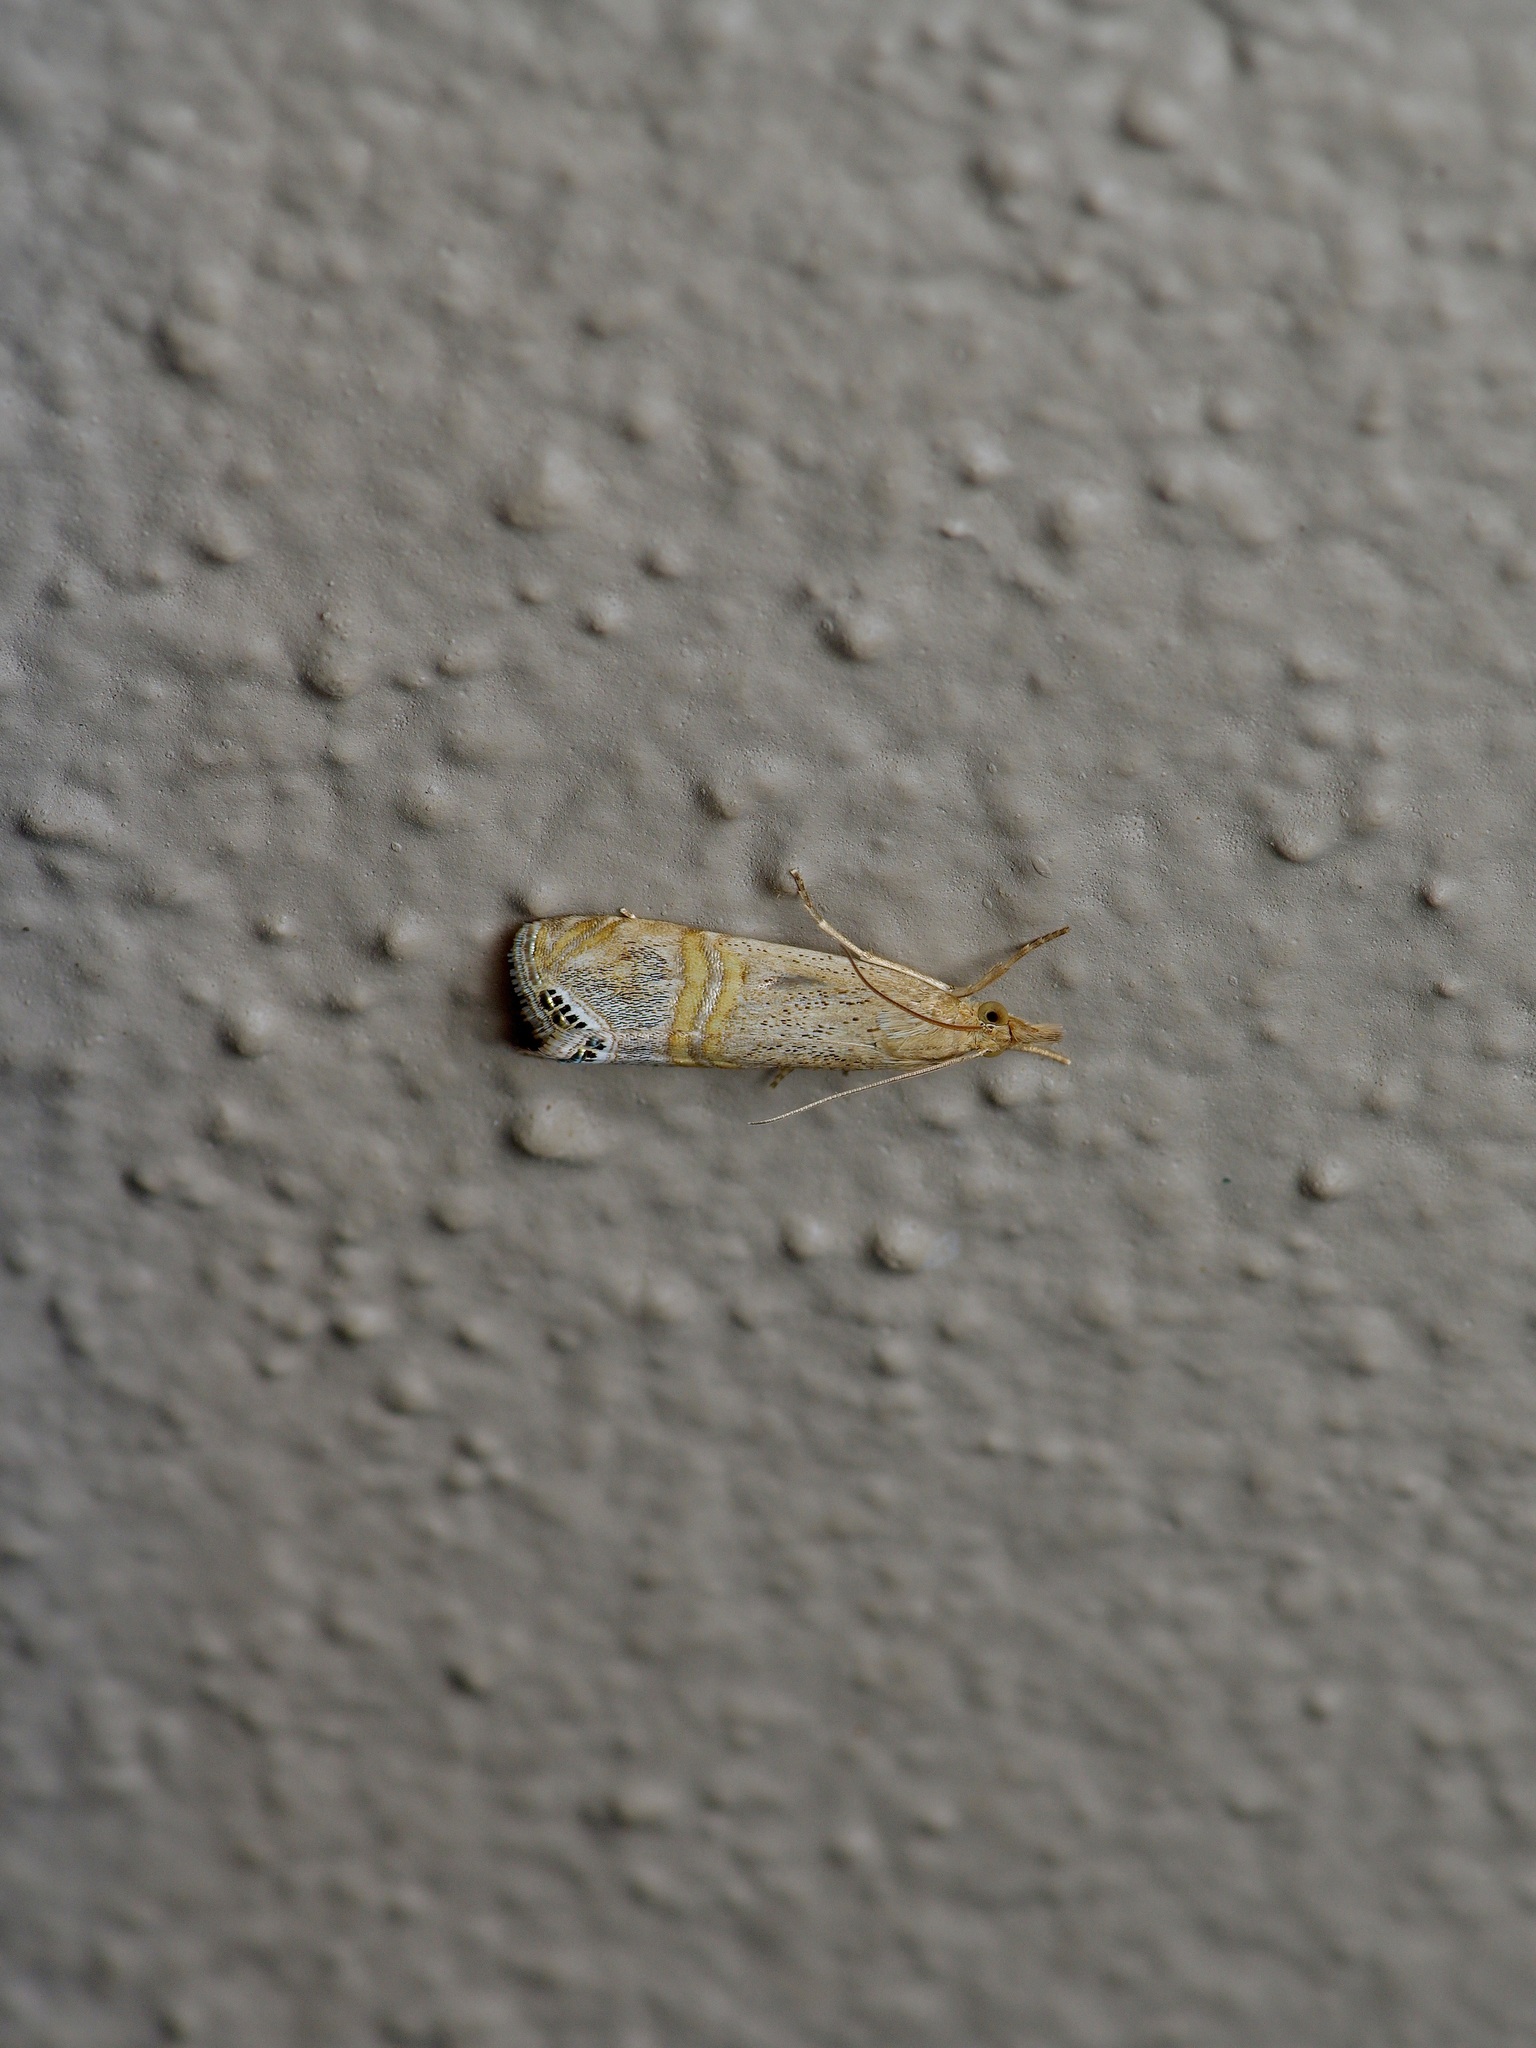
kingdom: Animalia
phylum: Arthropoda
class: Insecta
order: Lepidoptera
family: Crambidae
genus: Euchromius
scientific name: Euchromius ocellea
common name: Necklace veneer moth
